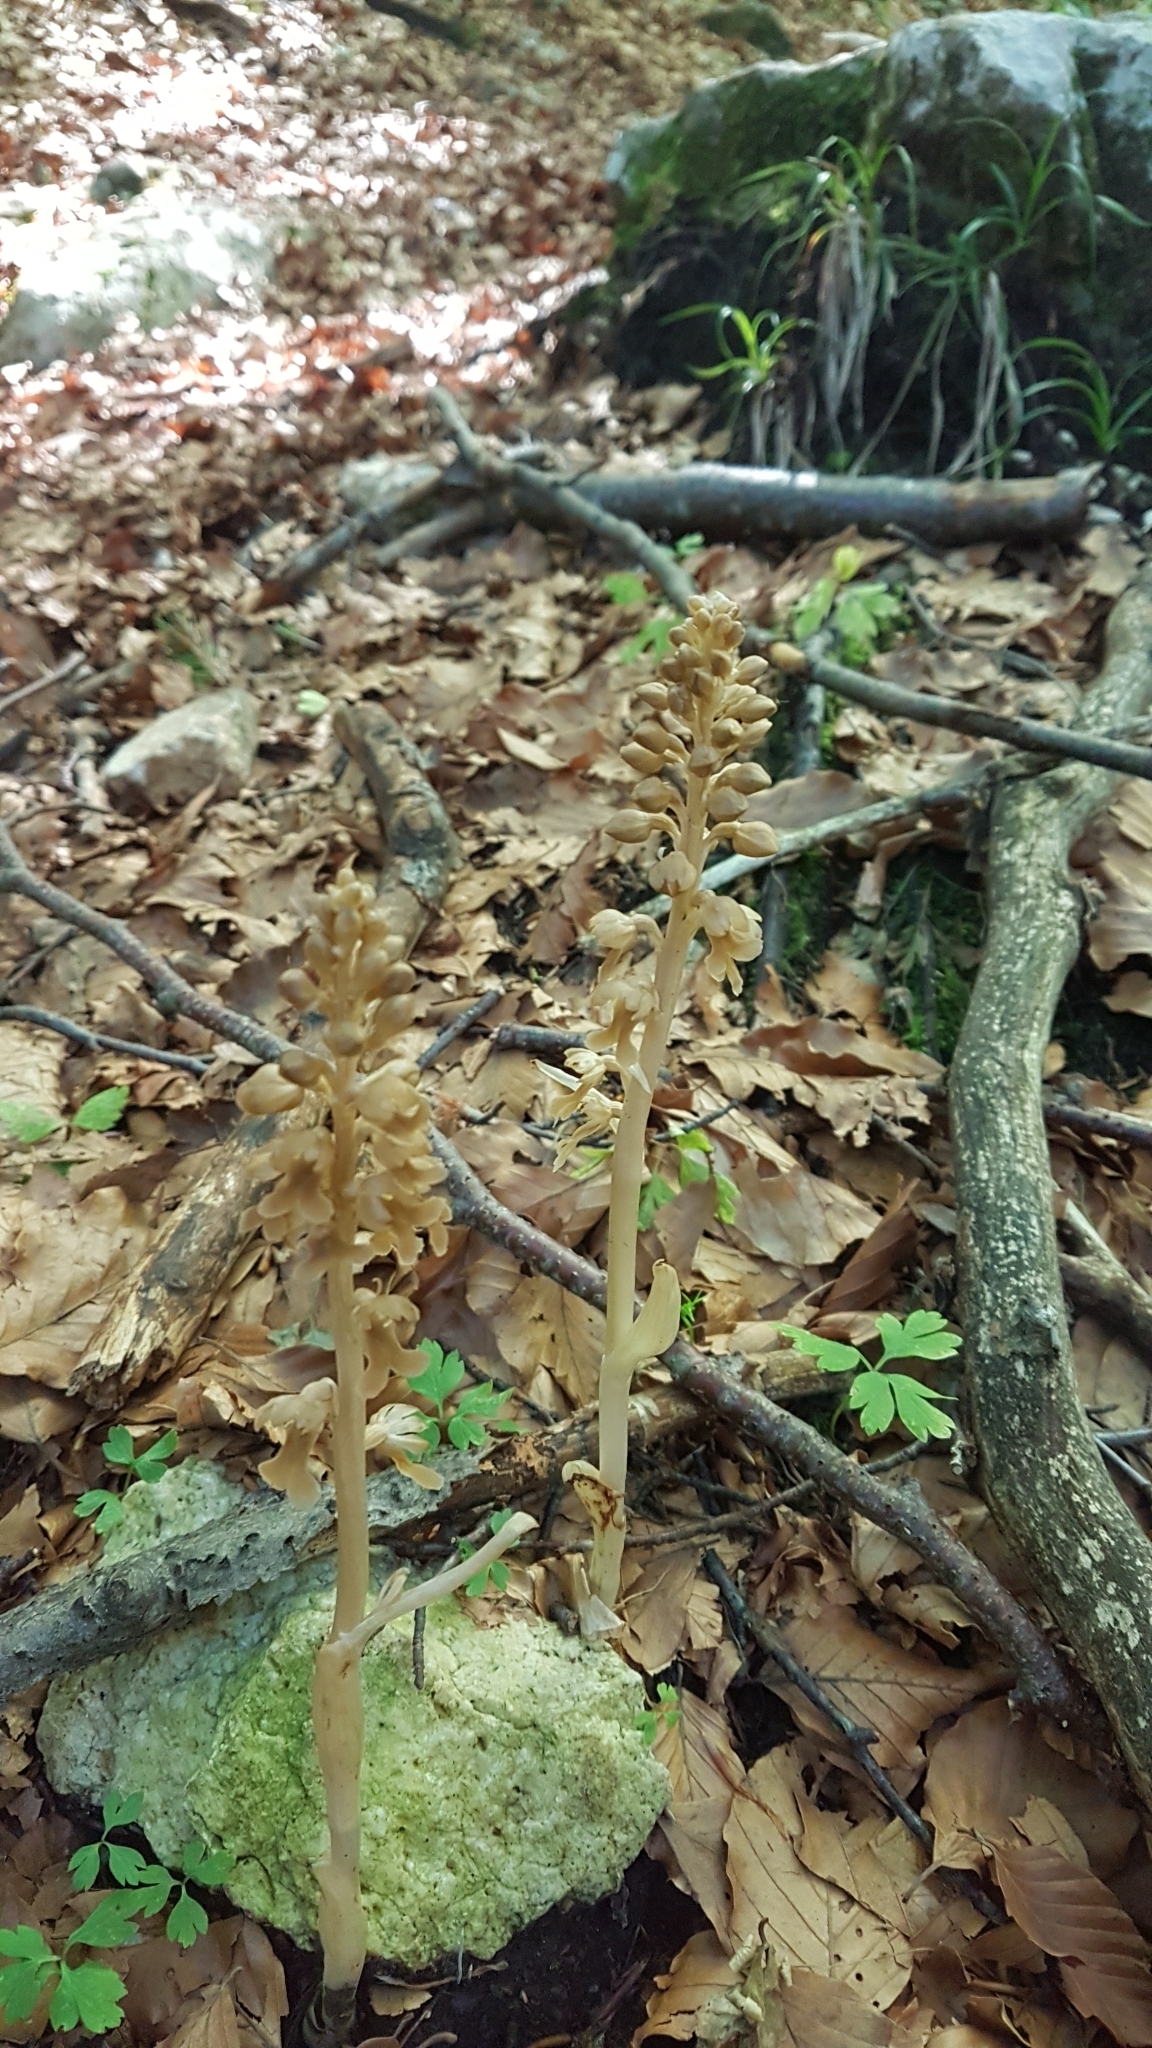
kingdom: Plantae
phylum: Tracheophyta
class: Liliopsida
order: Asparagales
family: Orchidaceae
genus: Neottia
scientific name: Neottia nidus-avis
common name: Bird's-nest orchid
